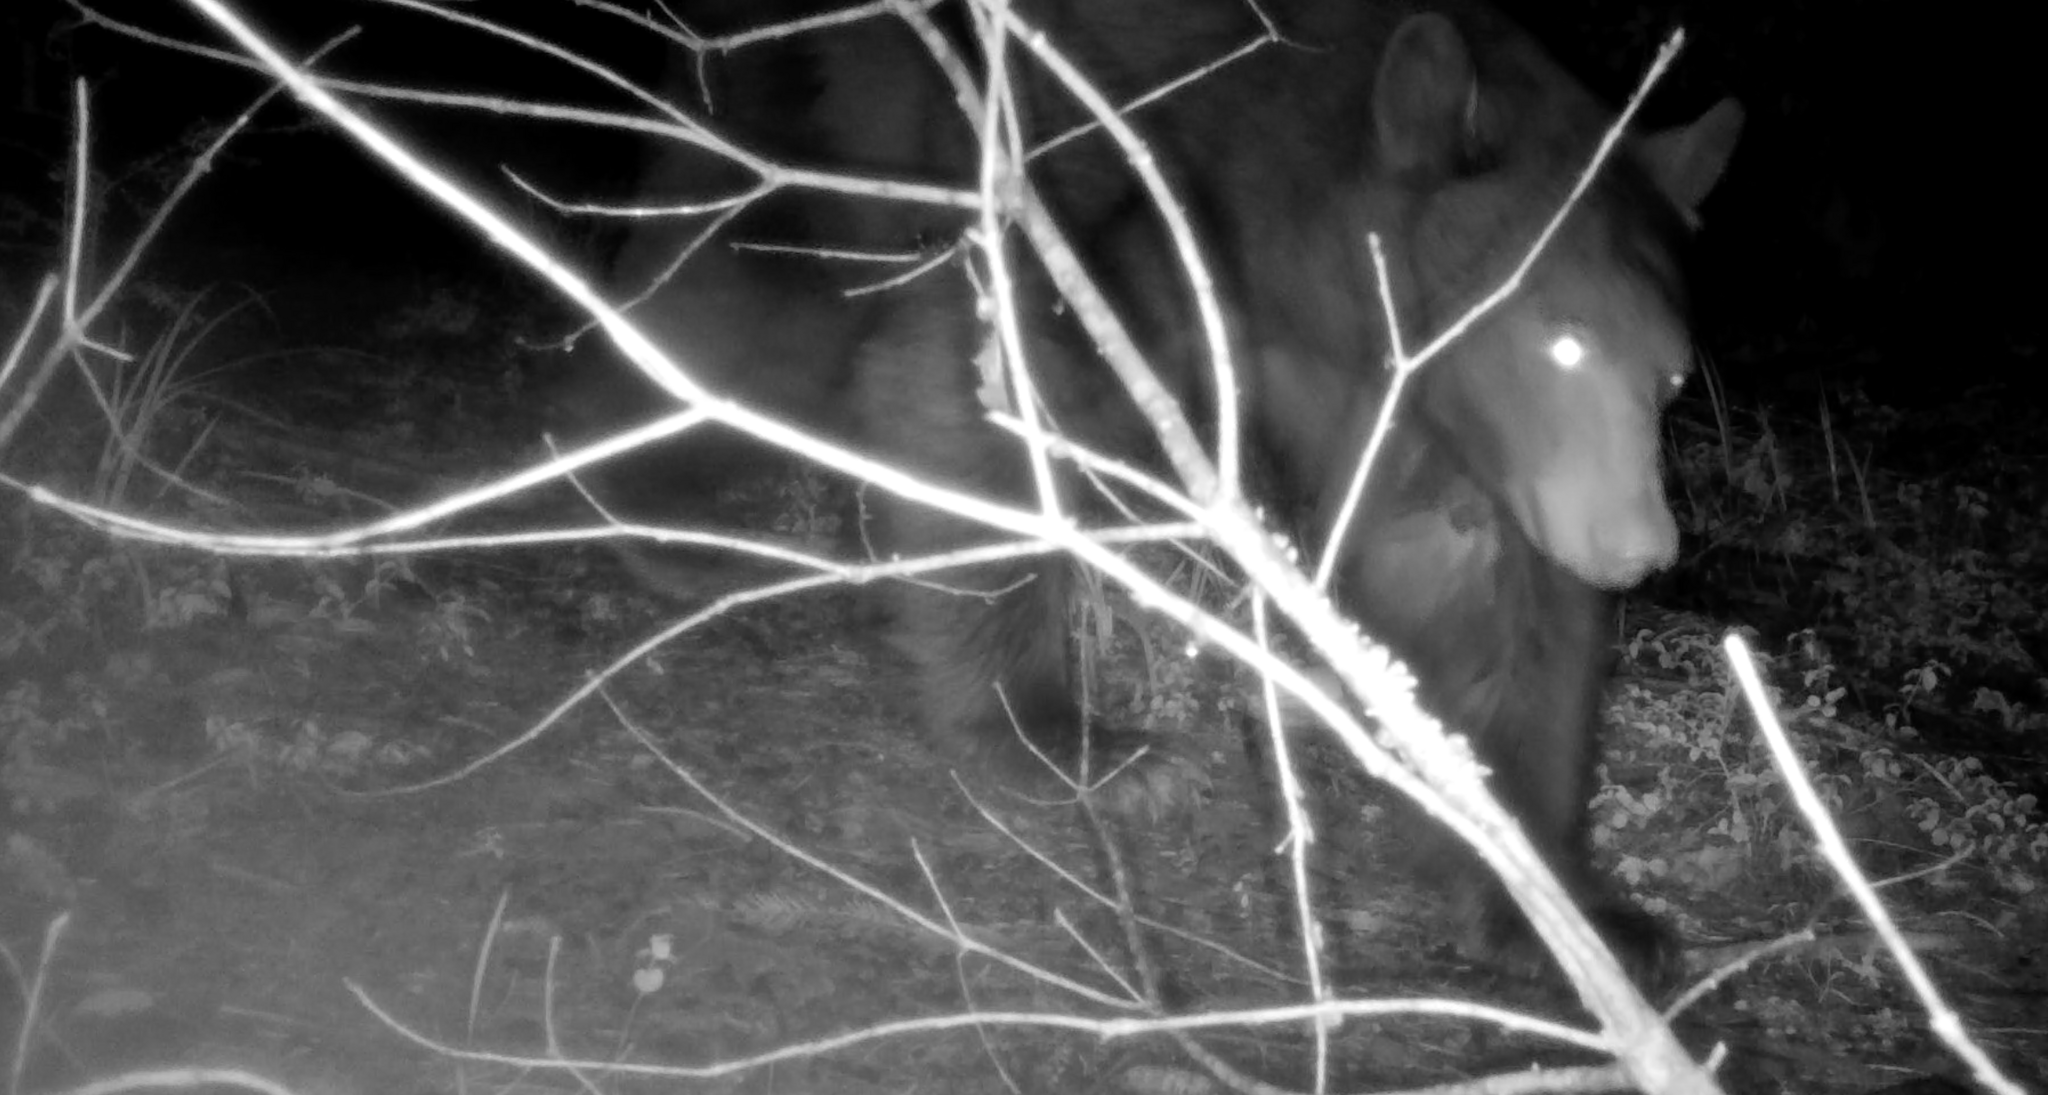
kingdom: Animalia
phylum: Chordata
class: Mammalia
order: Carnivora
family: Ursidae
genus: Ursus
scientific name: Ursus americanus
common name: American black bear
